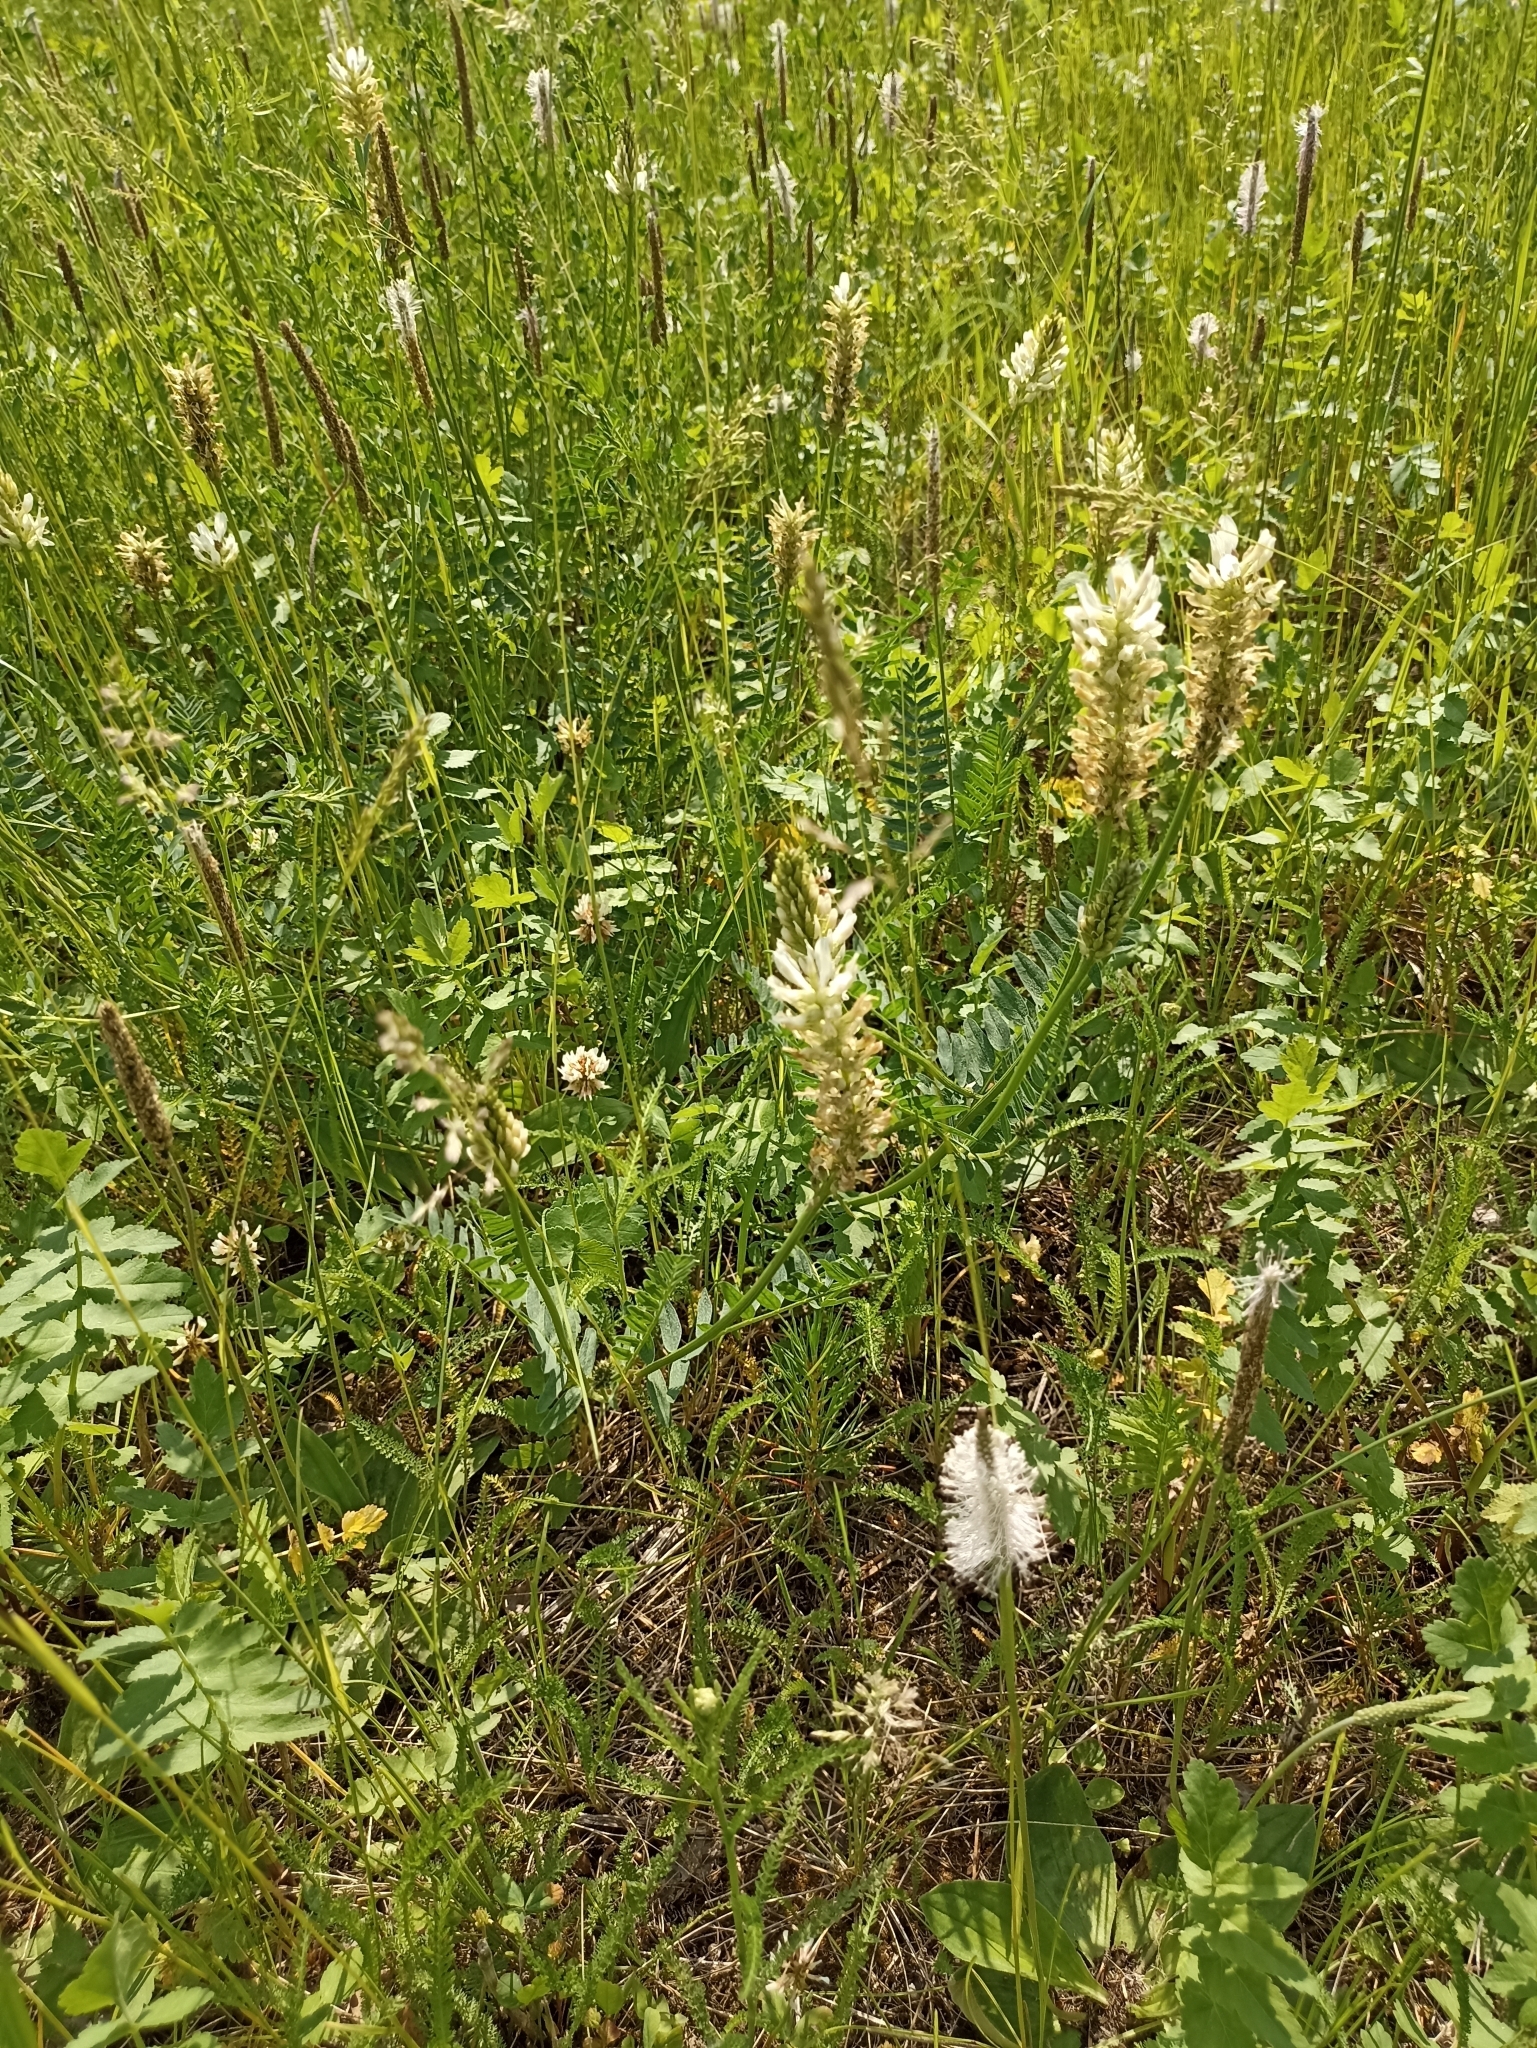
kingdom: Plantae
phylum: Tracheophyta
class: Magnoliopsida
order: Fabales
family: Fabaceae
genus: Astragalus
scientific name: Astragalus laxmannii
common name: Laxmann's milk-vetch
